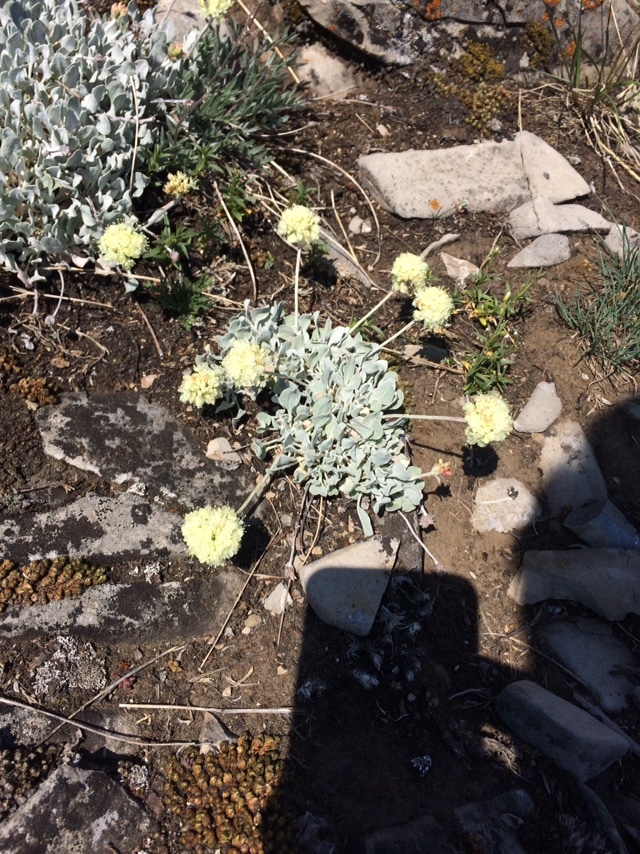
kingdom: Plantae
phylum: Tracheophyta
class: Magnoliopsida
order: Caryophyllales
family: Polygonaceae
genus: Eriogonum
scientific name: Eriogonum ovalifolium
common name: Cushion buckwheat
